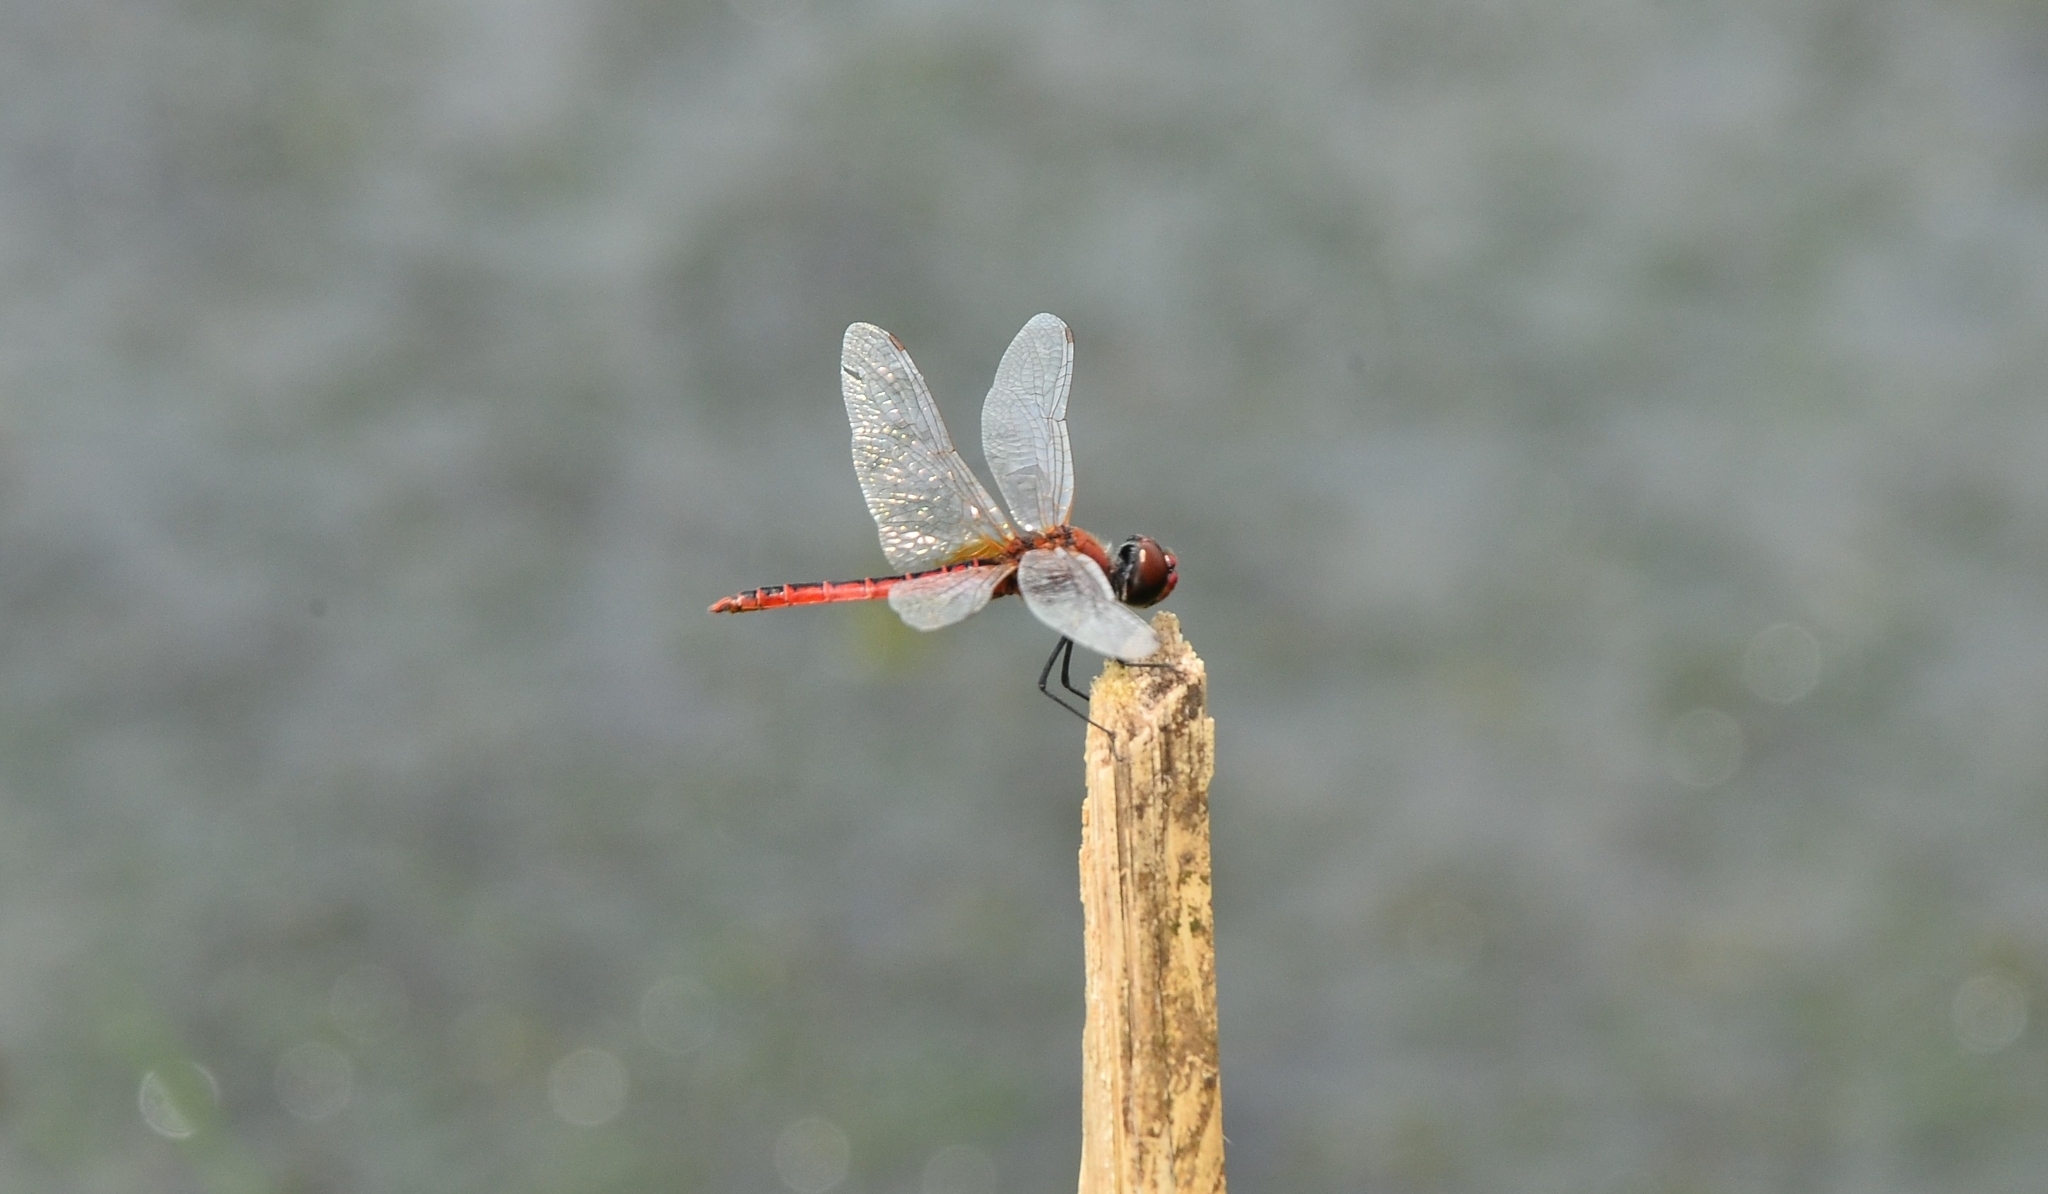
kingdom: Animalia
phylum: Arthropoda
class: Insecta
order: Odonata
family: Libellulidae
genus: Macrodiplax
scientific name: Macrodiplax cora
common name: Coastal glider
